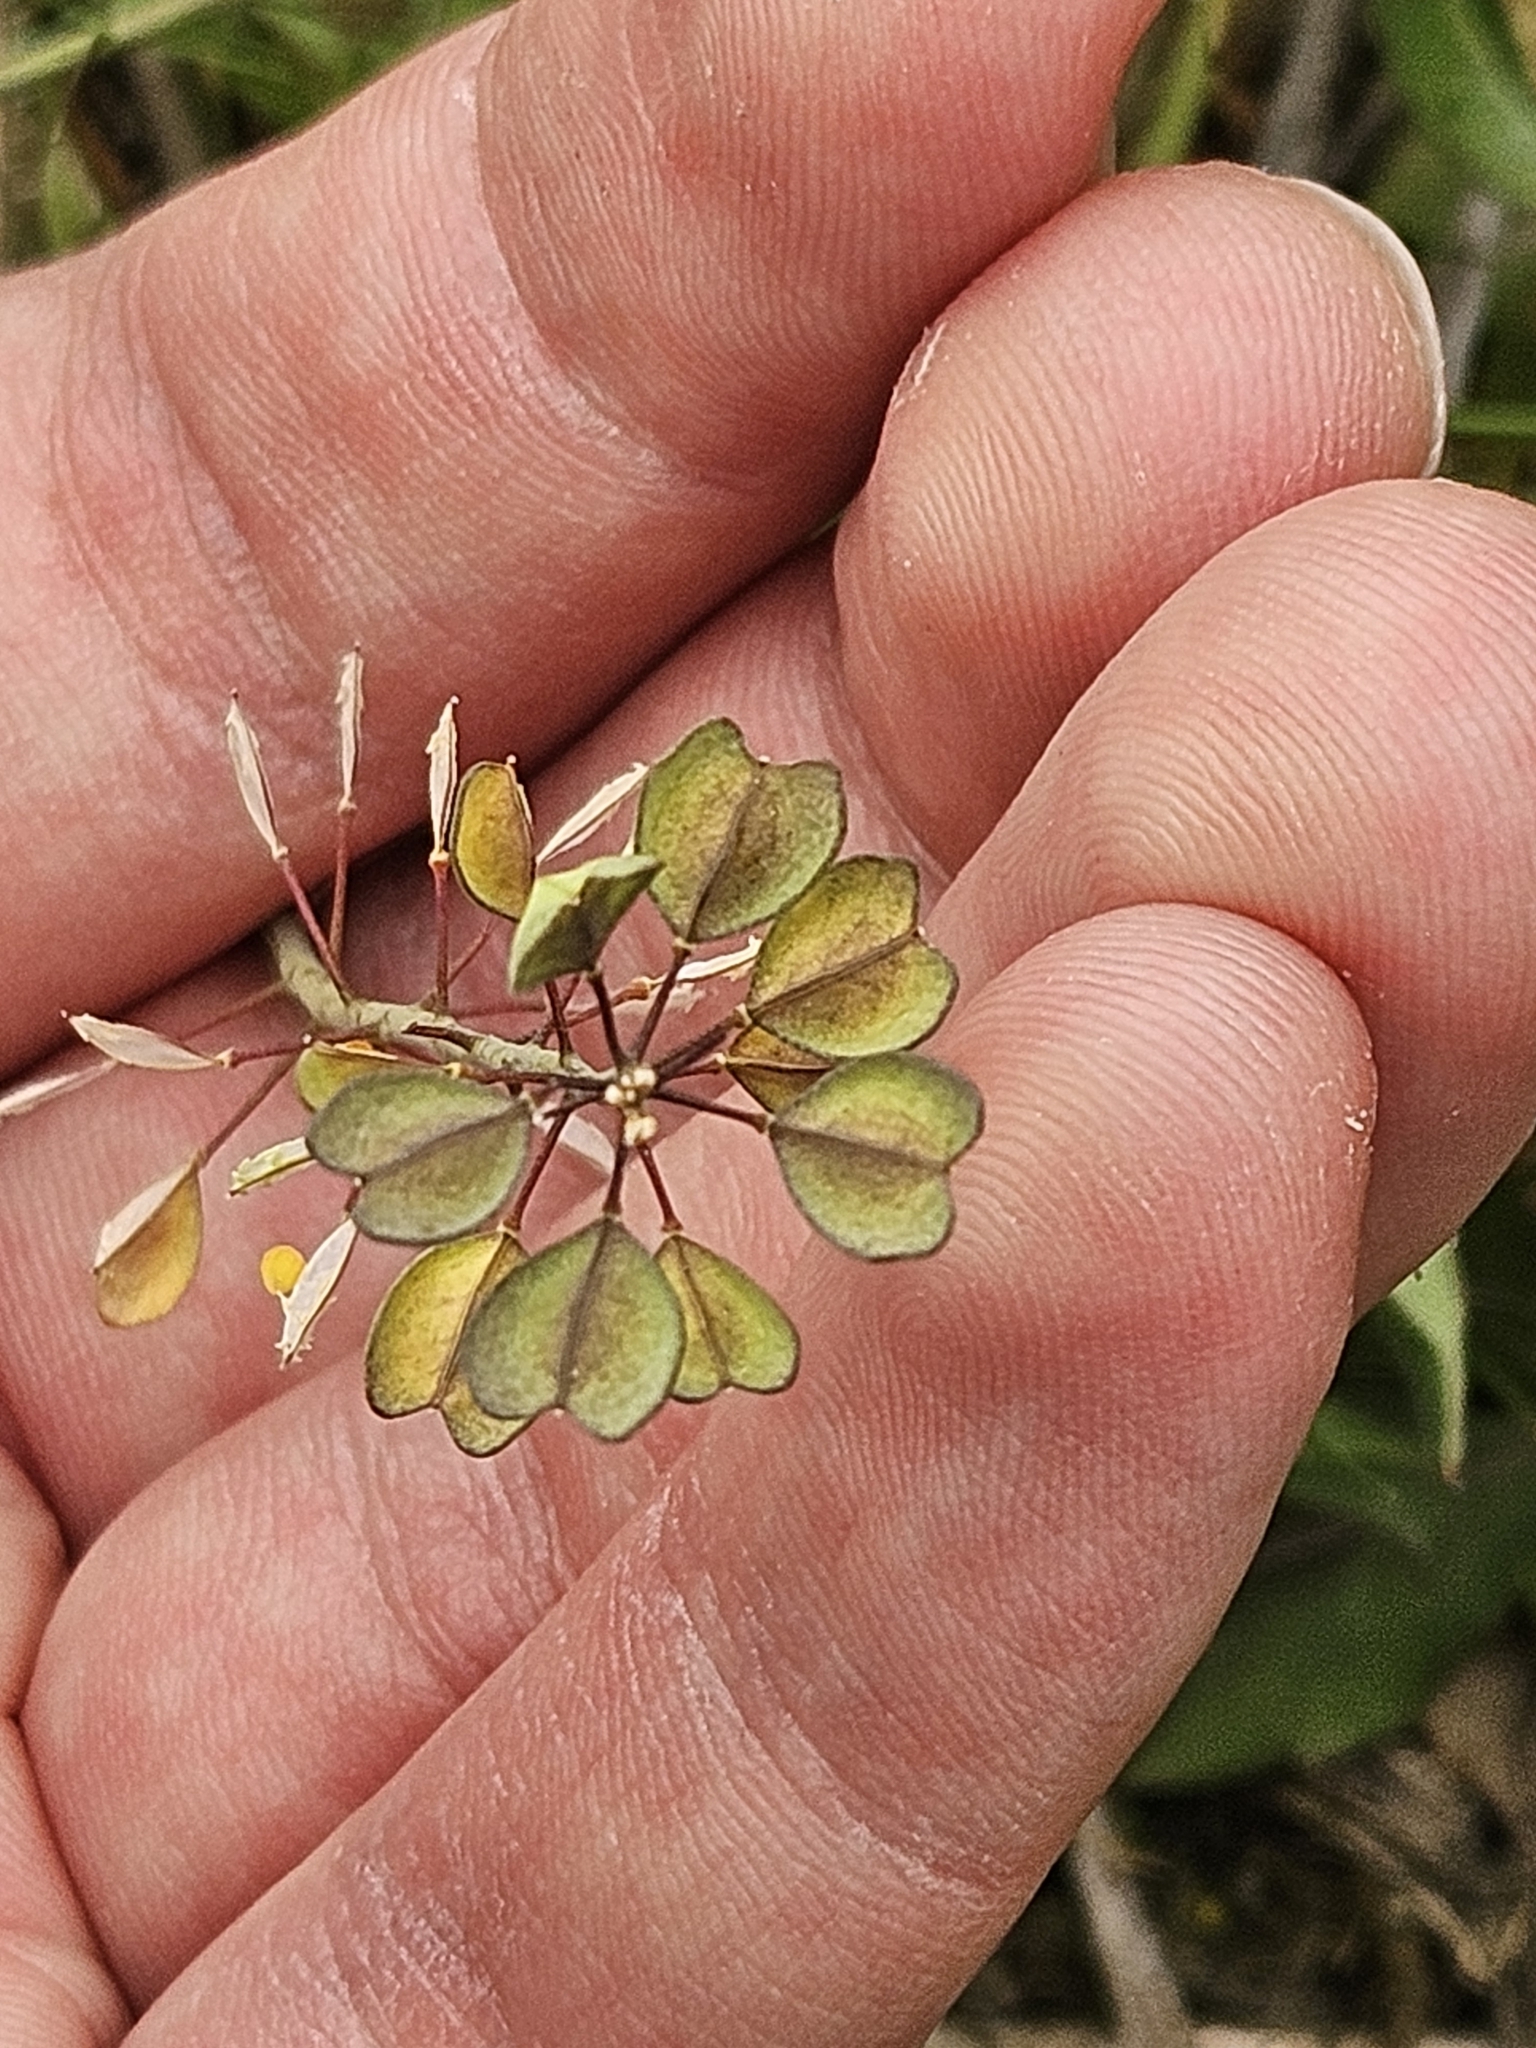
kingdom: Plantae
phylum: Tracheophyta
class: Magnoliopsida
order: Brassicales
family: Brassicaceae
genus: Noccaea
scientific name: Noccaea perfoliata
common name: Perfoliate pennycress
